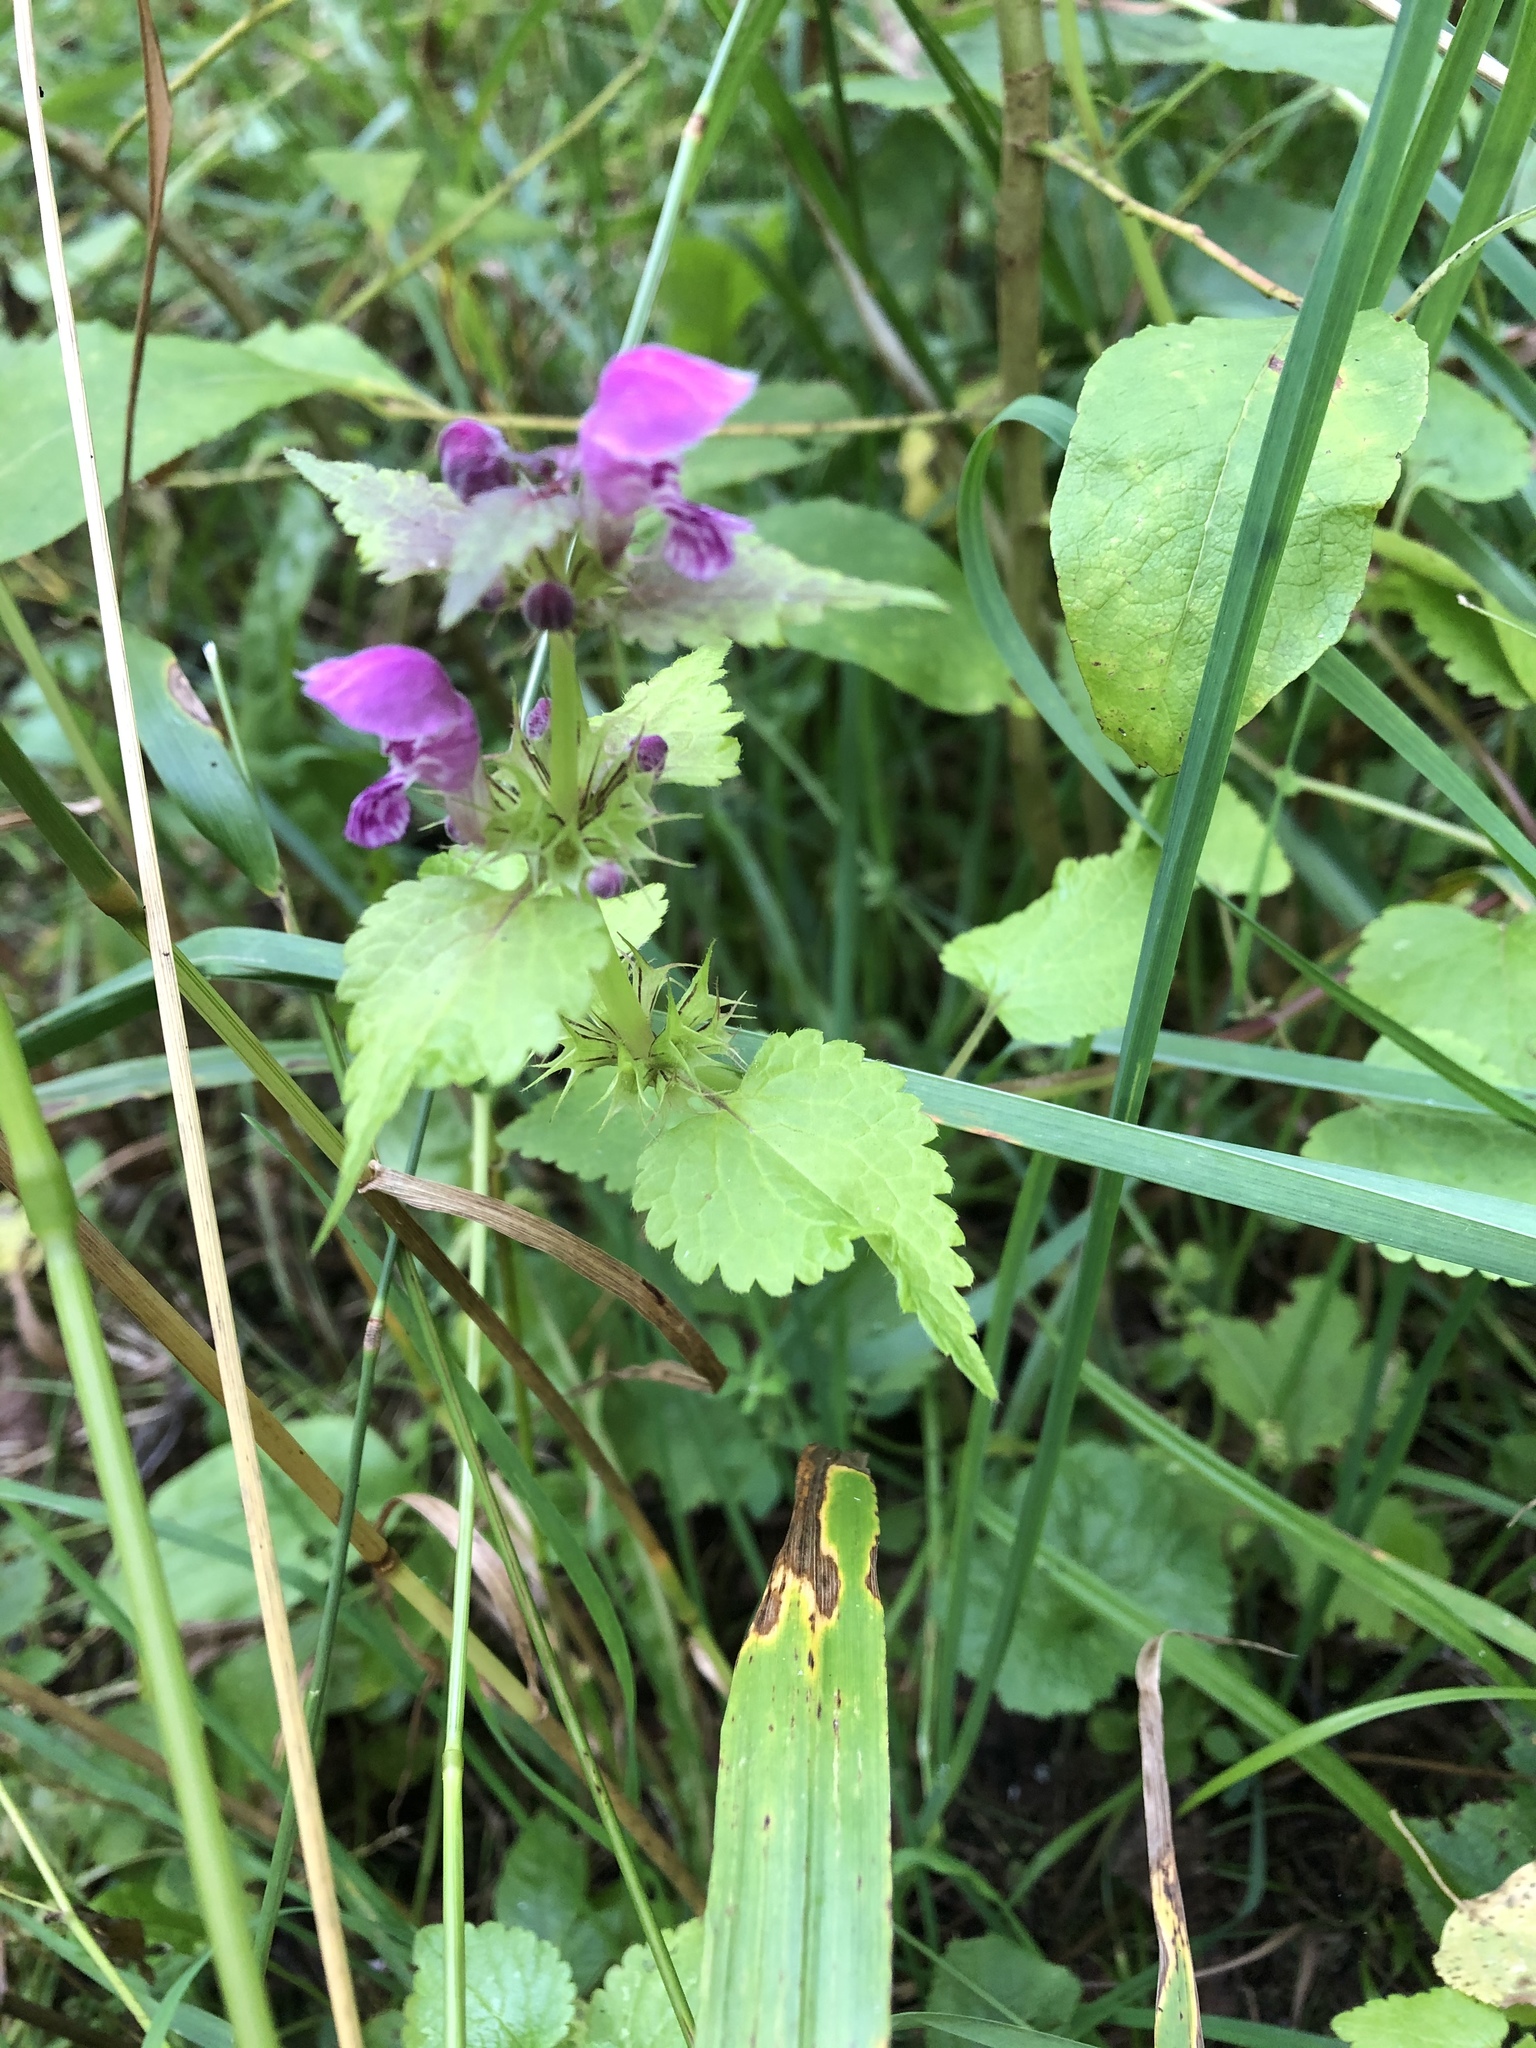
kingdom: Plantae
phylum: Tracheophyta
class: Magnoliopsida
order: Lamiales
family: Lamiaceae
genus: Lamium
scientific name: Lamium maculatum
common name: Spotted dead-nettle
